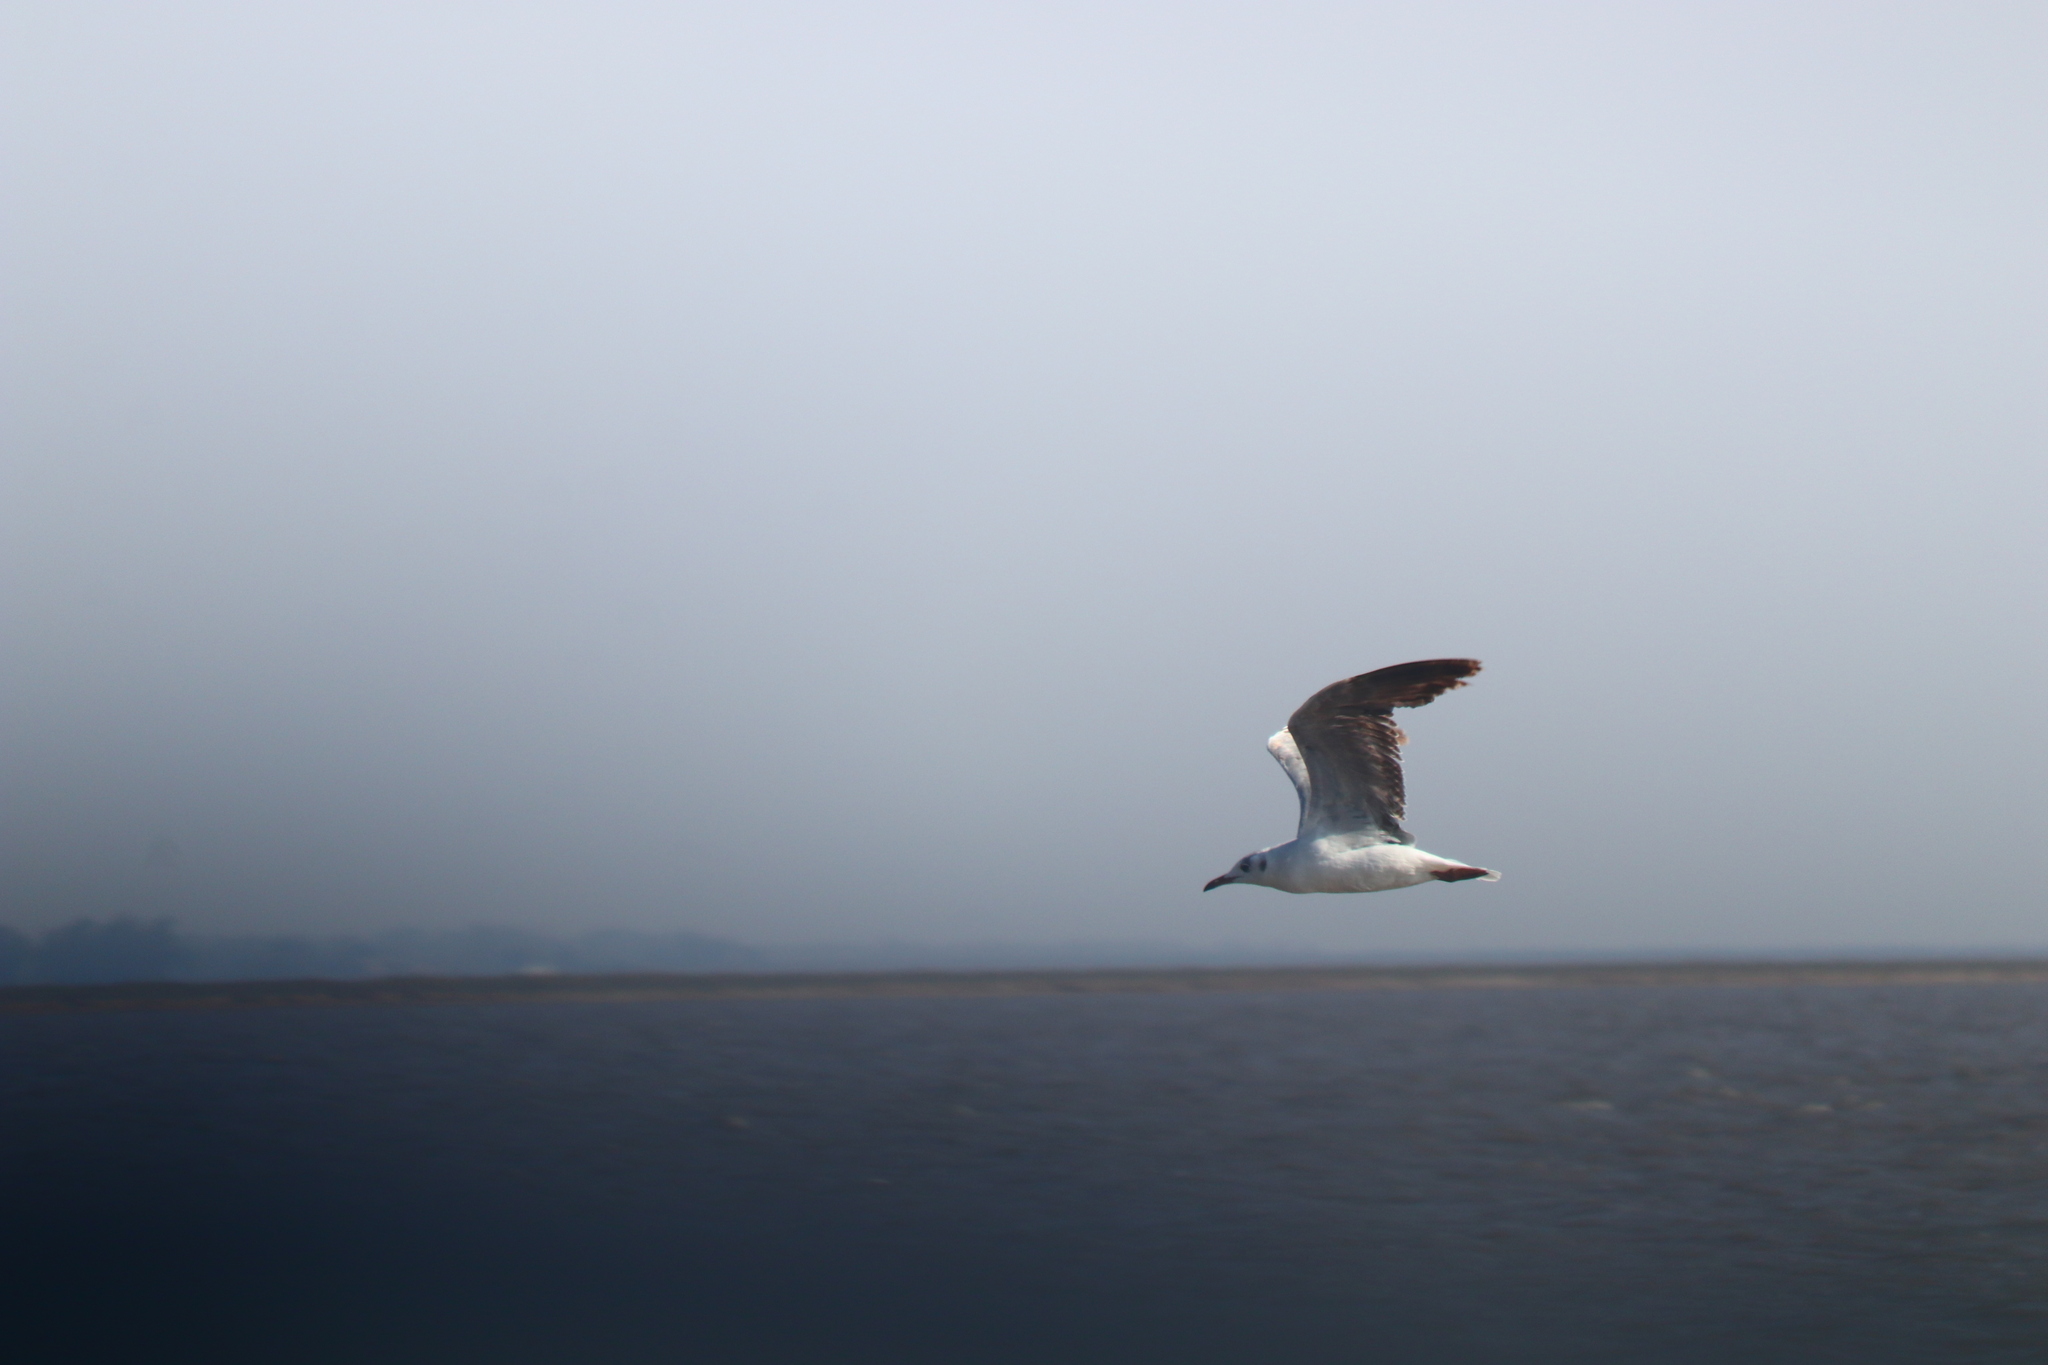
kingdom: Animalia
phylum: Chordata
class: Aves
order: Charadriiformes
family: Laridae
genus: Chroicocephalus
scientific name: Chroicocephalus maculipennis
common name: Brown-hooded gull
